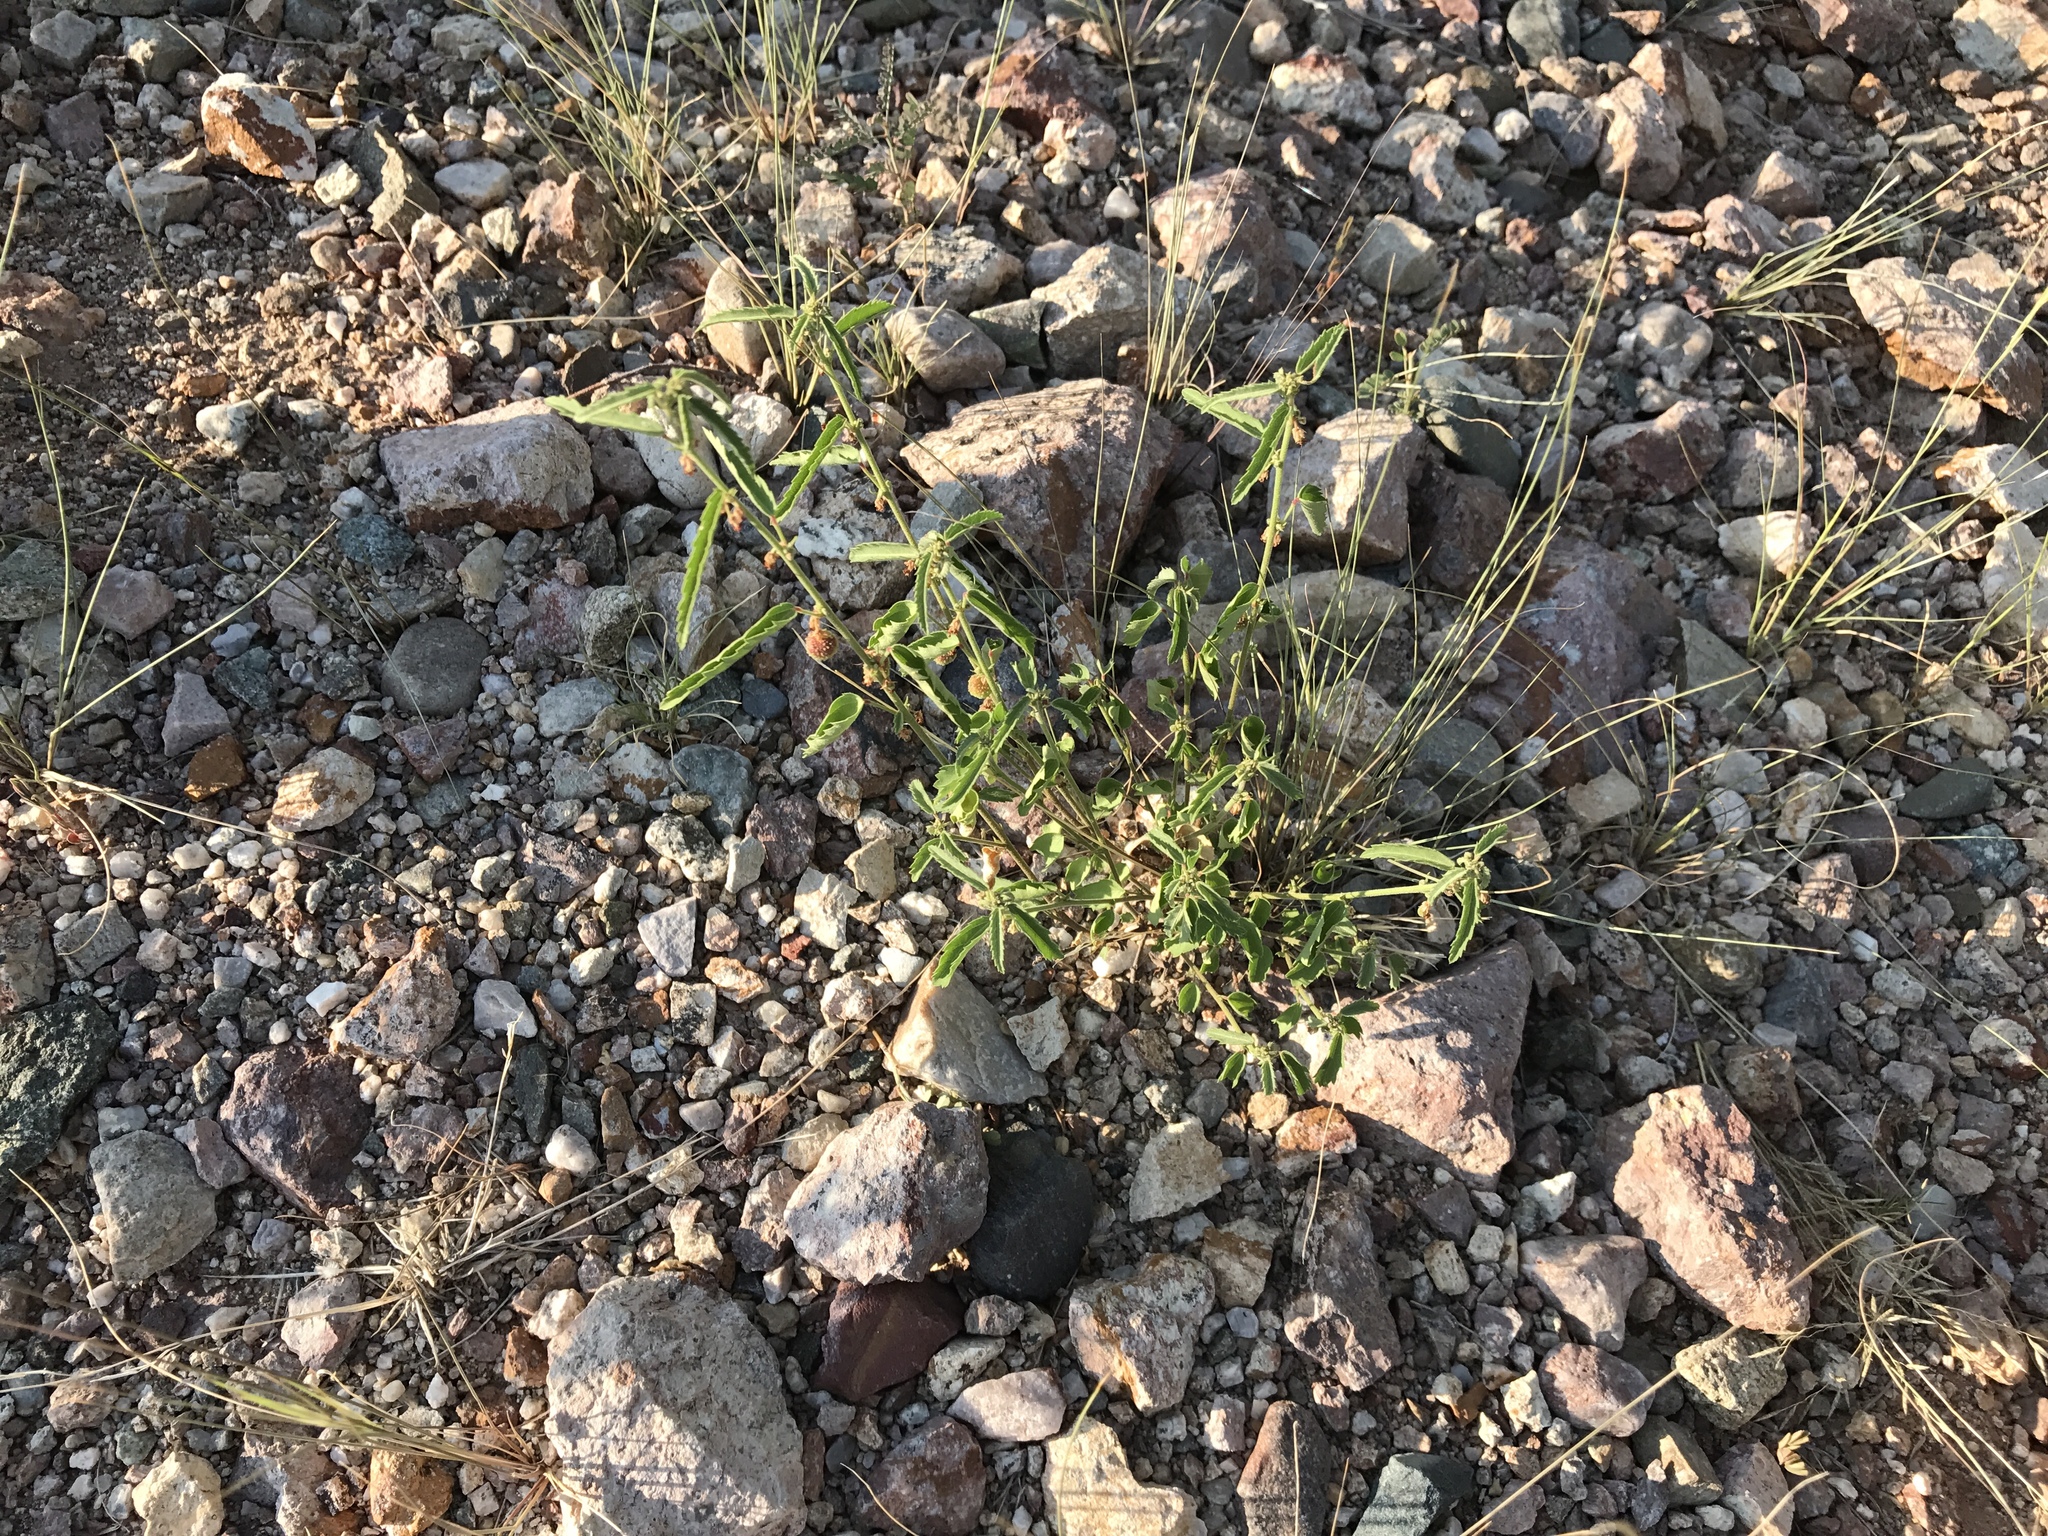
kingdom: Plantae
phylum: Tracheophyta
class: Magnoliopsida
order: Malvales
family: Malvaceae
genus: Ayenia
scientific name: Ayenia filiformis
